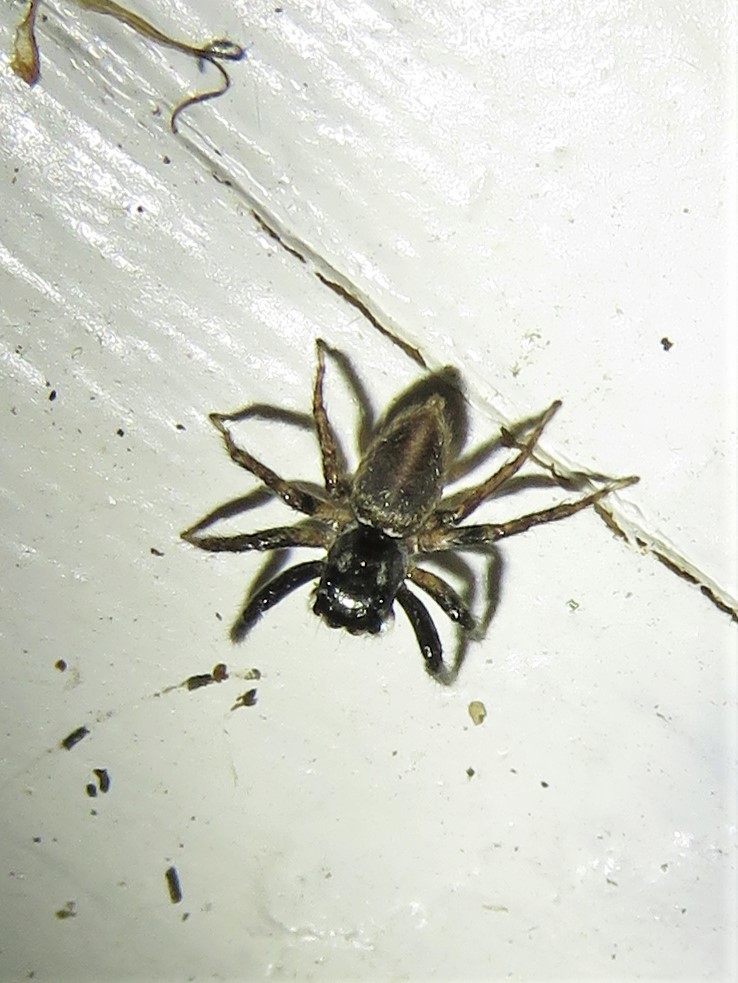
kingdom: Animalia
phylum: Arthropoda
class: Arachnida
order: Araneae
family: Salticidae
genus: Anasaitis
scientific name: Anasaitis canosa
